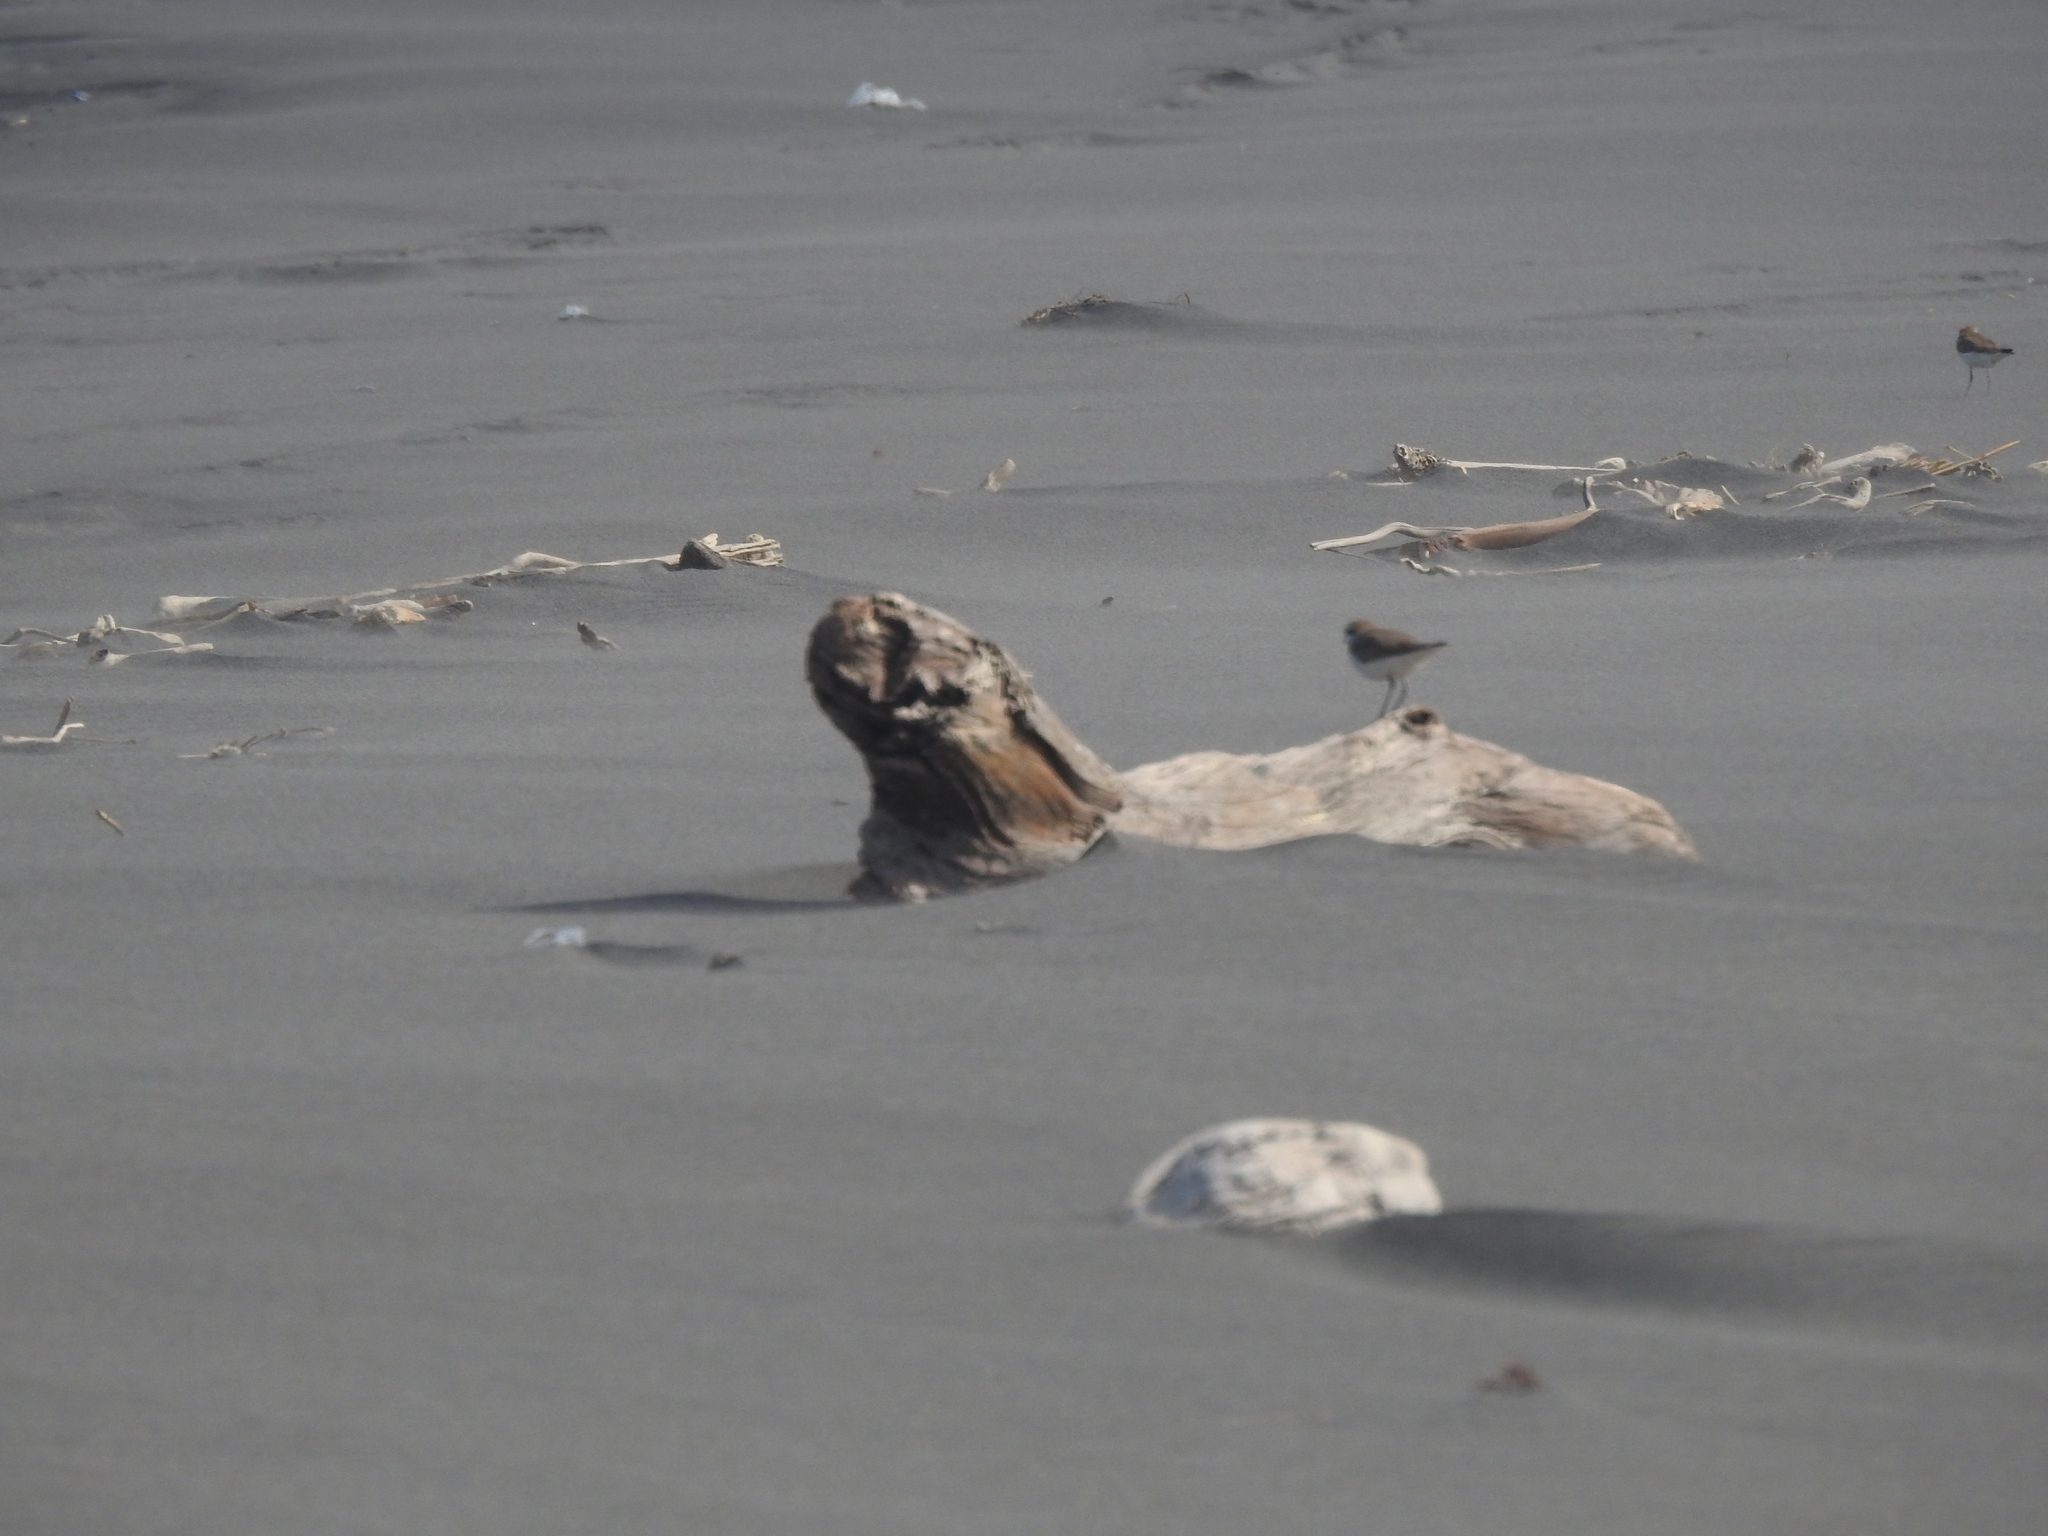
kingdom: Animalia
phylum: Chordata
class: Aves
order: Charadriiformes
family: Charadriidae
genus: Charadrius
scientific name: Charadrius alexandrinus
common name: Kentish plover
